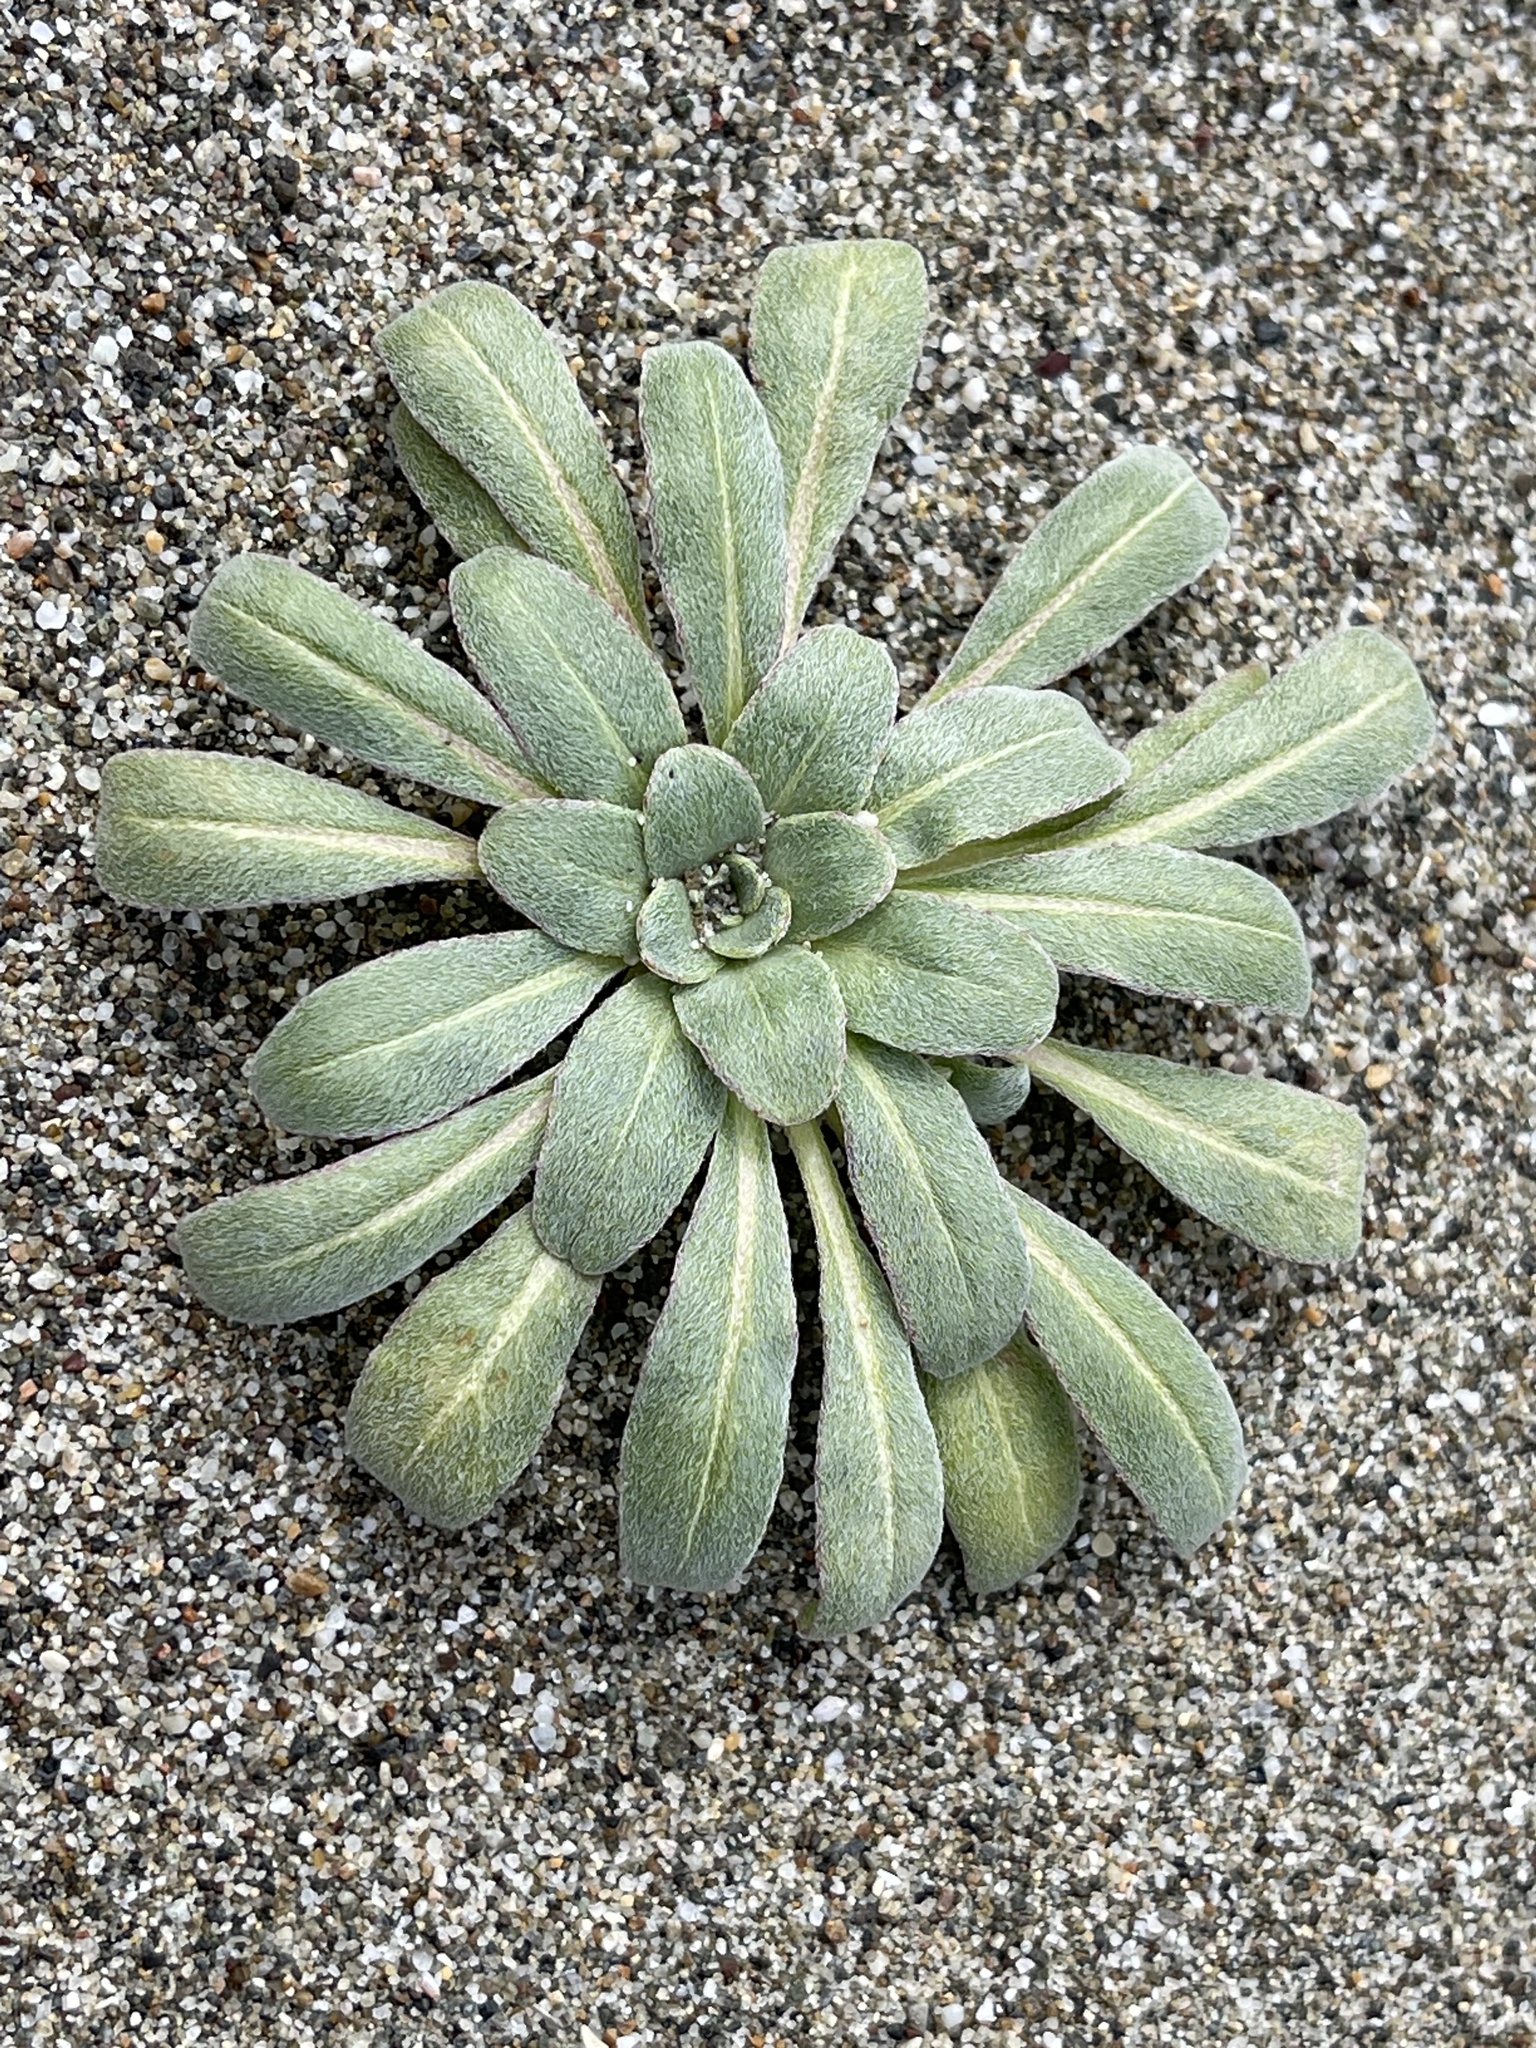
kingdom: Plantae
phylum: Tracheophyta
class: Magnoliopsida
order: Myrtales
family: Onagraceae
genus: Camissoniopsis
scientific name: Camissoniopsis cheiranthifolia
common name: Beach suncup
